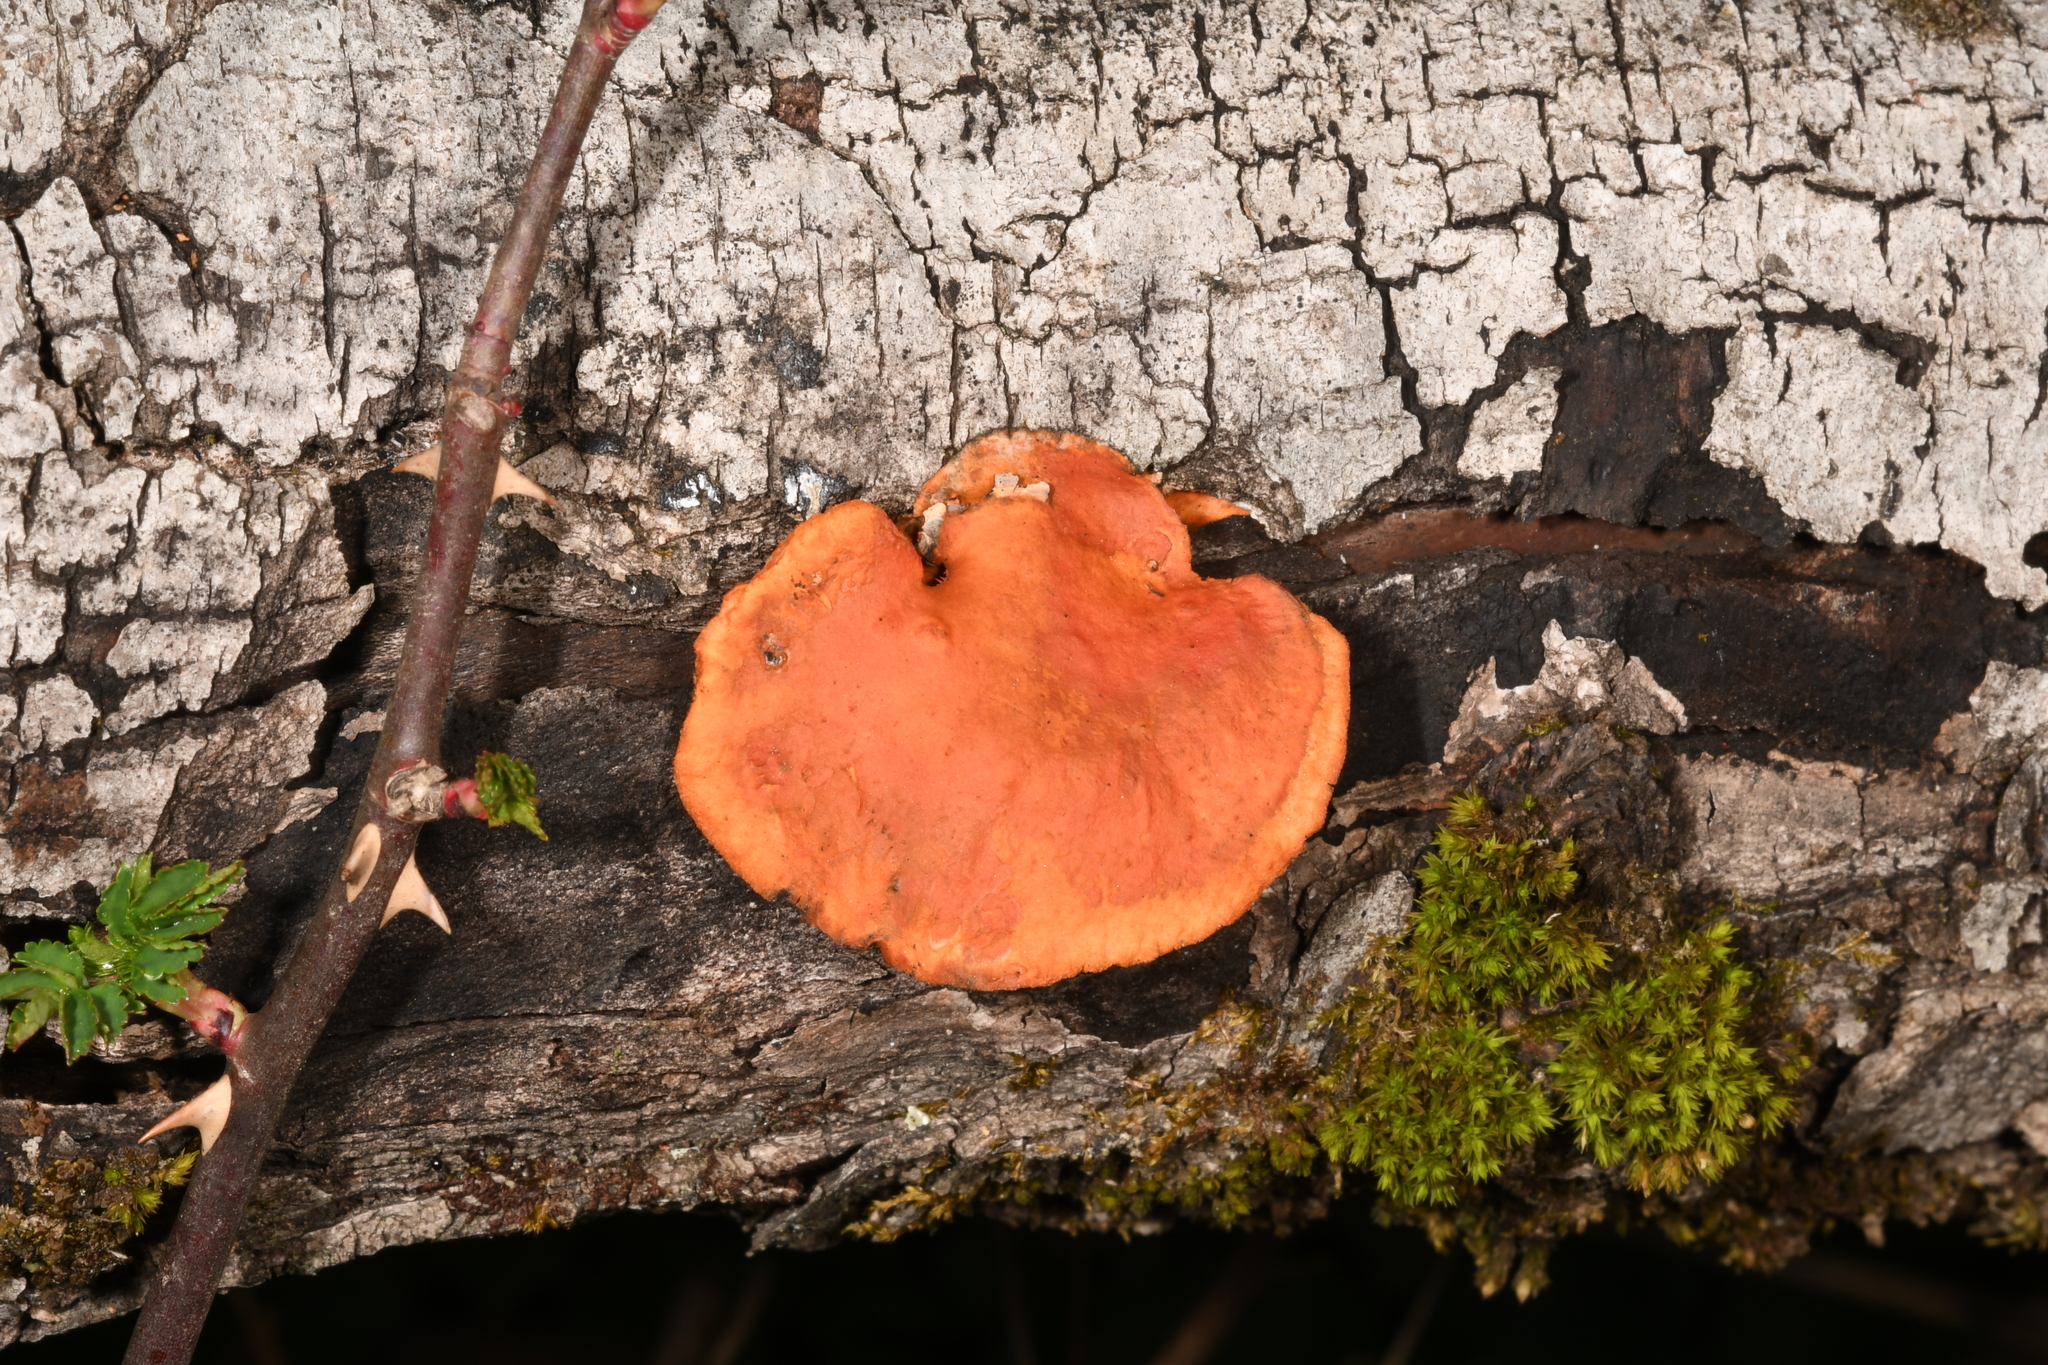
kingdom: Fungi
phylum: Basidiomycota
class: Agaricomycetes
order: Polyporales
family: Polyporaceae
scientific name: Polyporaceae
